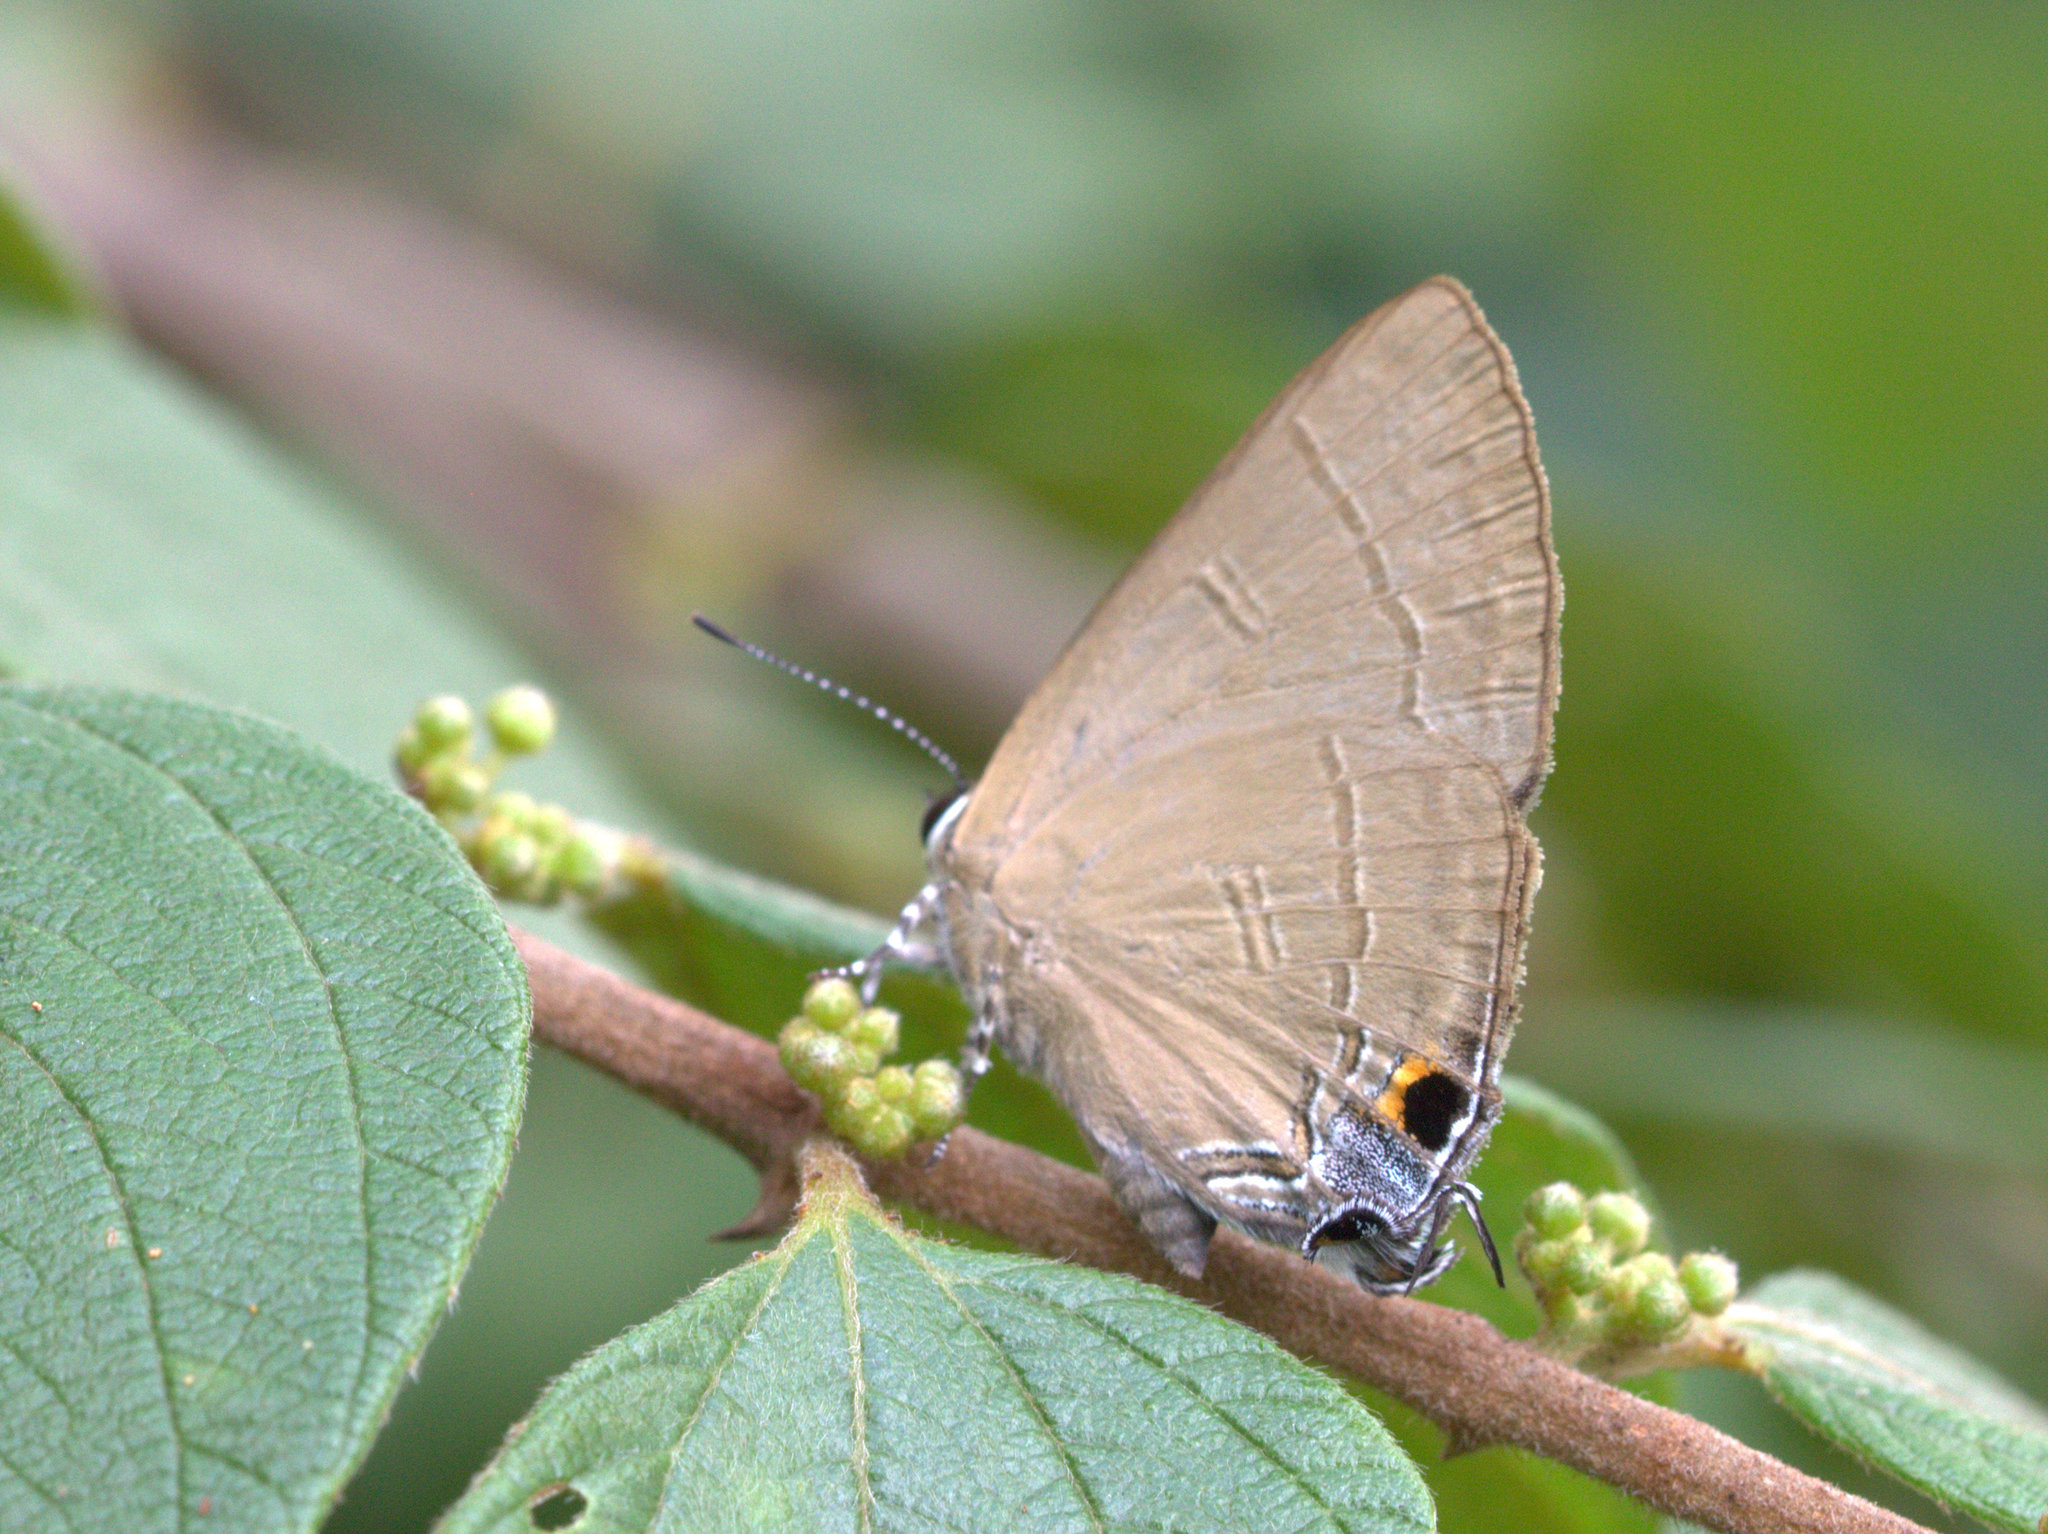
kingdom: Animalia
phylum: Arthropoda
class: Insecta
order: Lepidoptera
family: Lycaenidae
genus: Rapala
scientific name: Rapala manea
